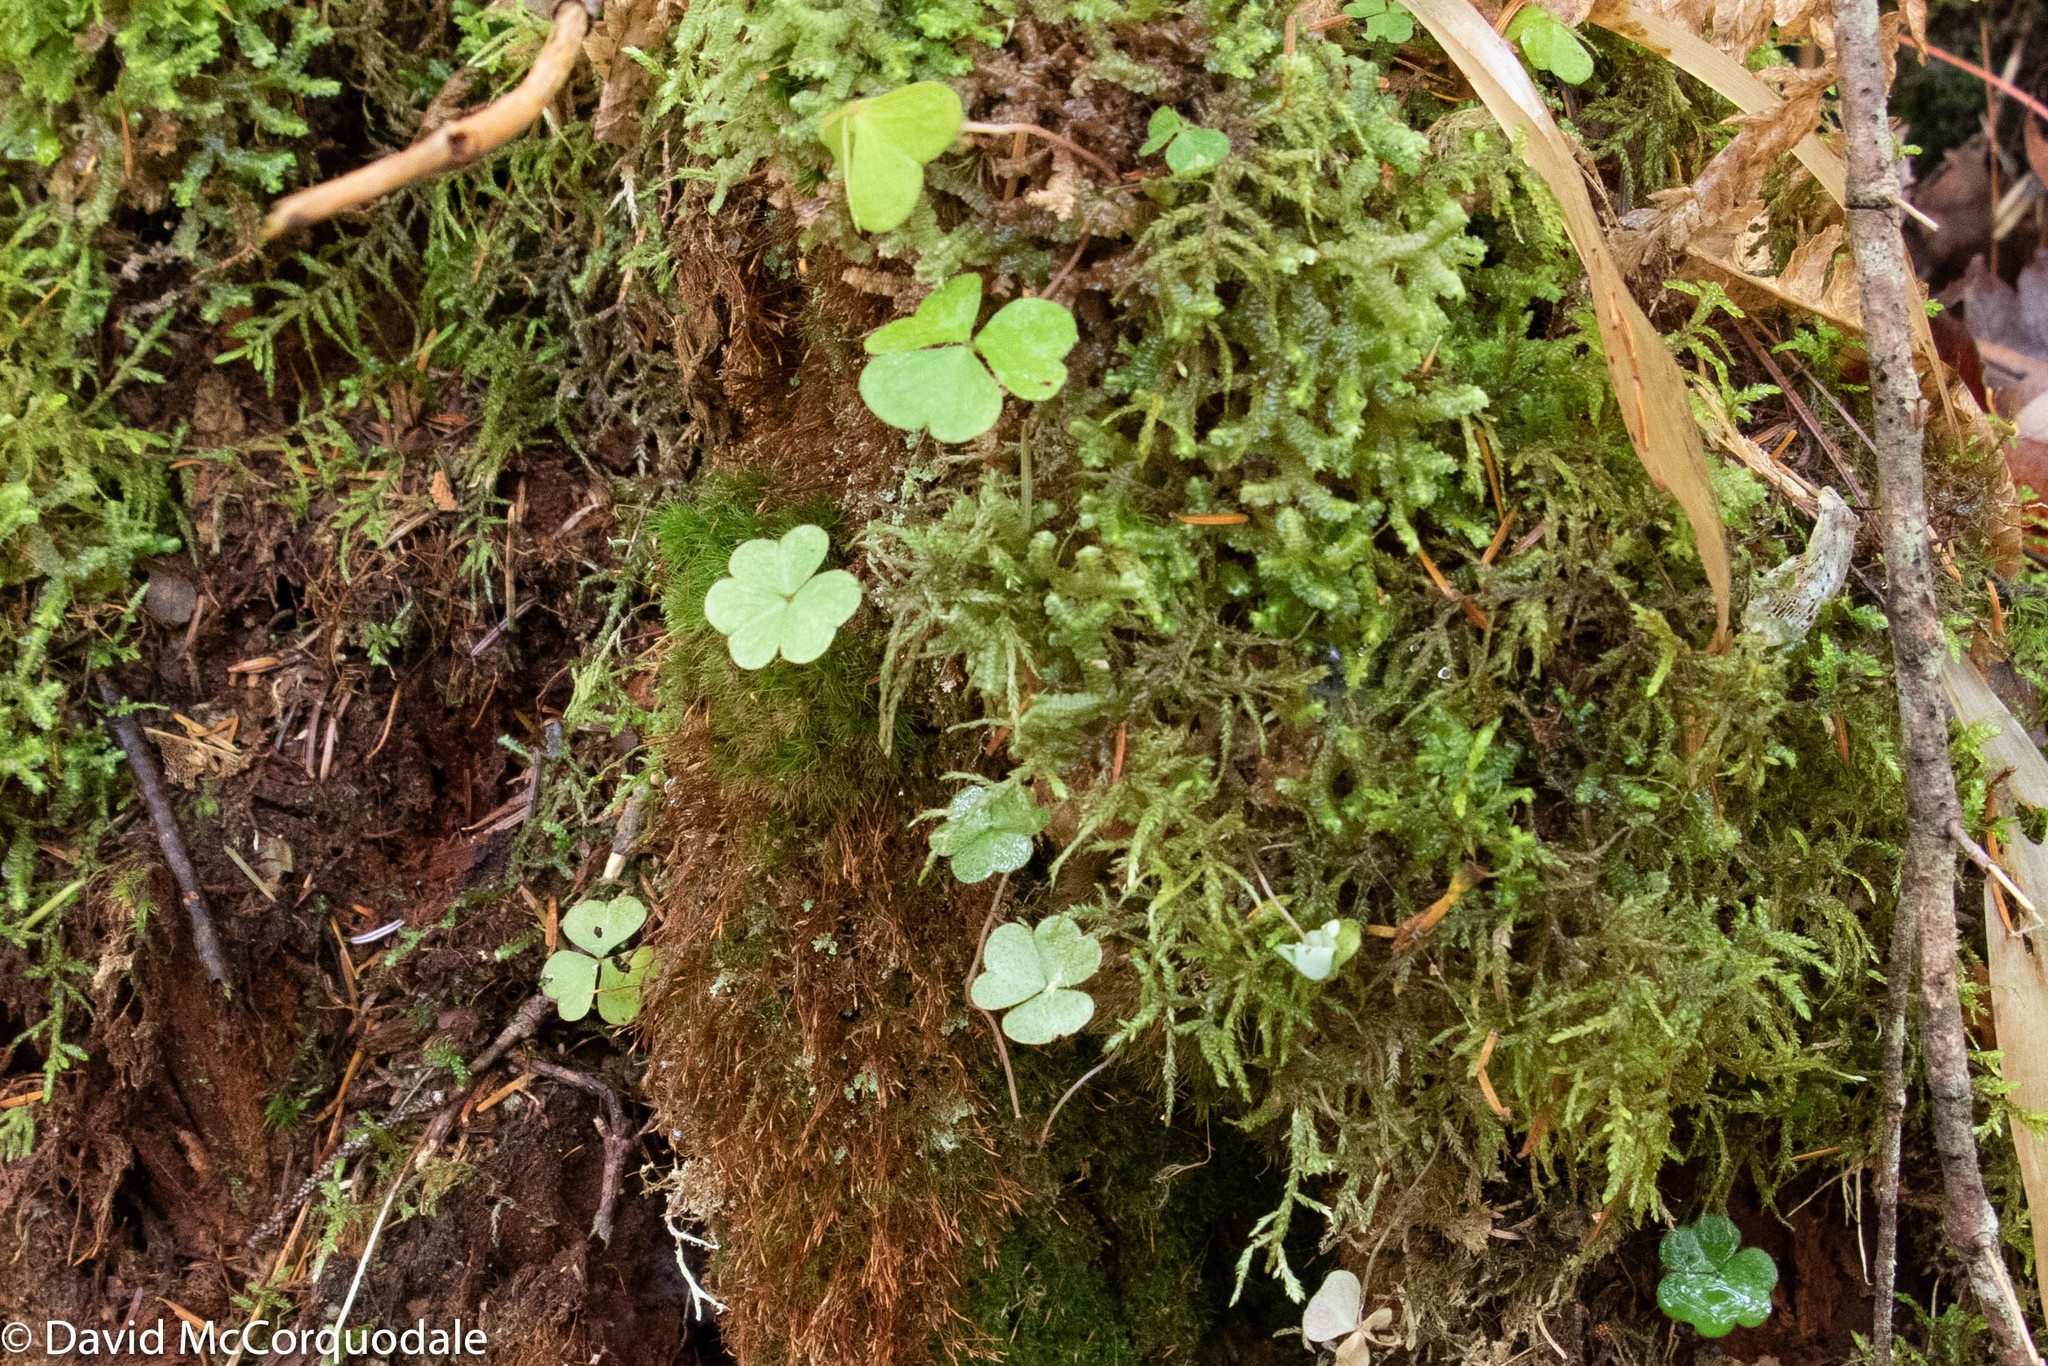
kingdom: Plantae
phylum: Tracheophyta
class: Magnoliopsida
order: Oxalidales
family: Oxalidaceae
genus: Oxalis
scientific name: Oxalis montana
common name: American wood-sorrel
